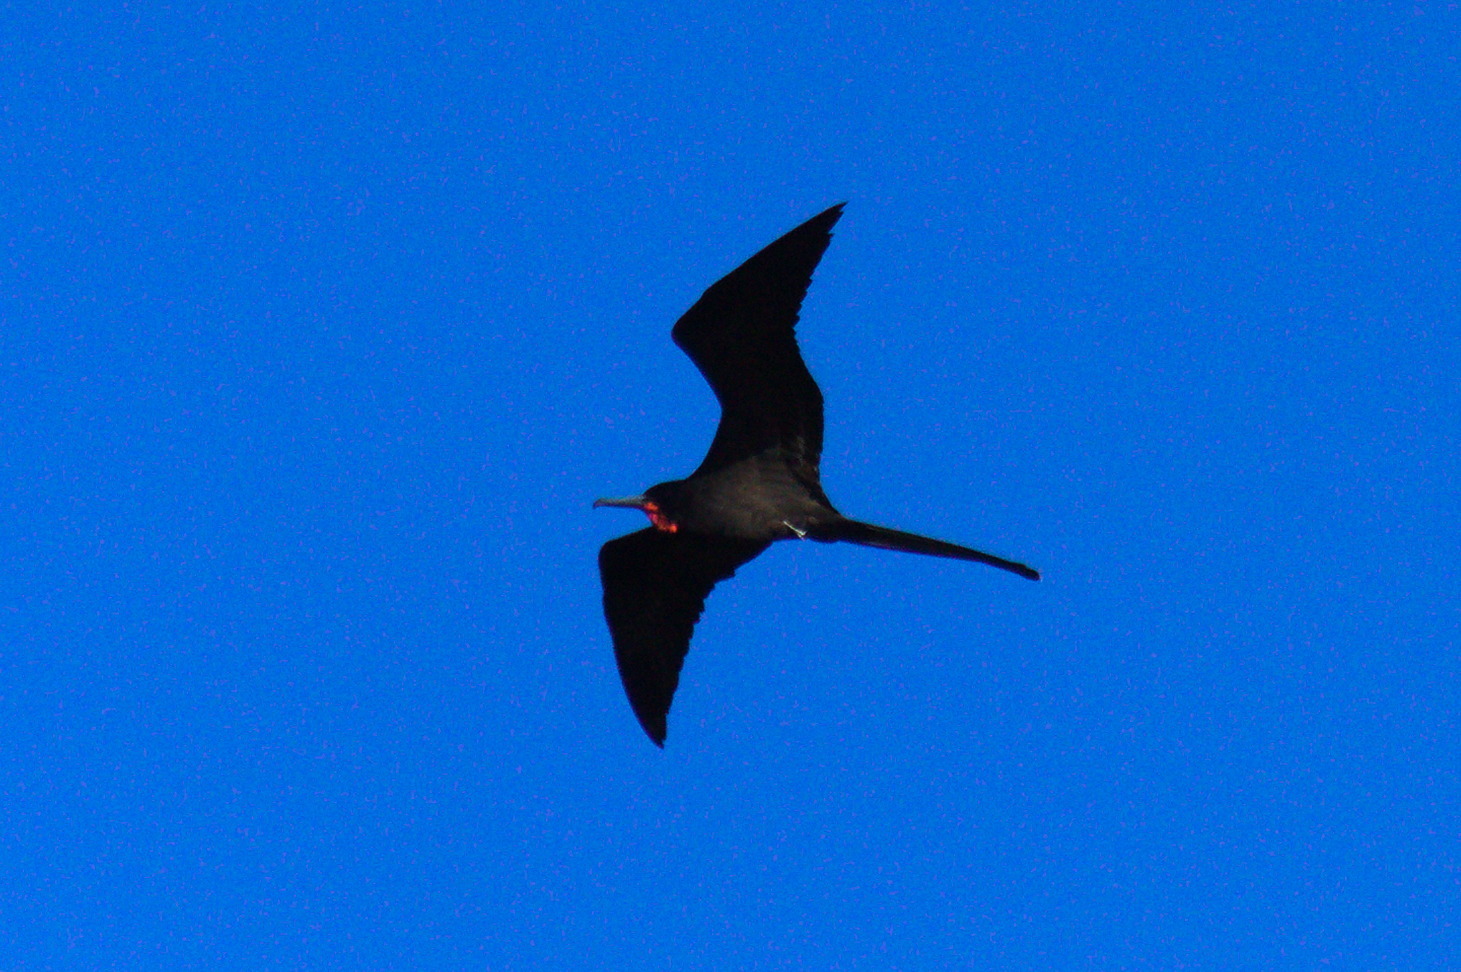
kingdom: Animalia
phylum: Chordata
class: Aves
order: Suliformes
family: Fregatidae
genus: Fregata
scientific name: Fregata magnificens
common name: Magnificent frigatebird
